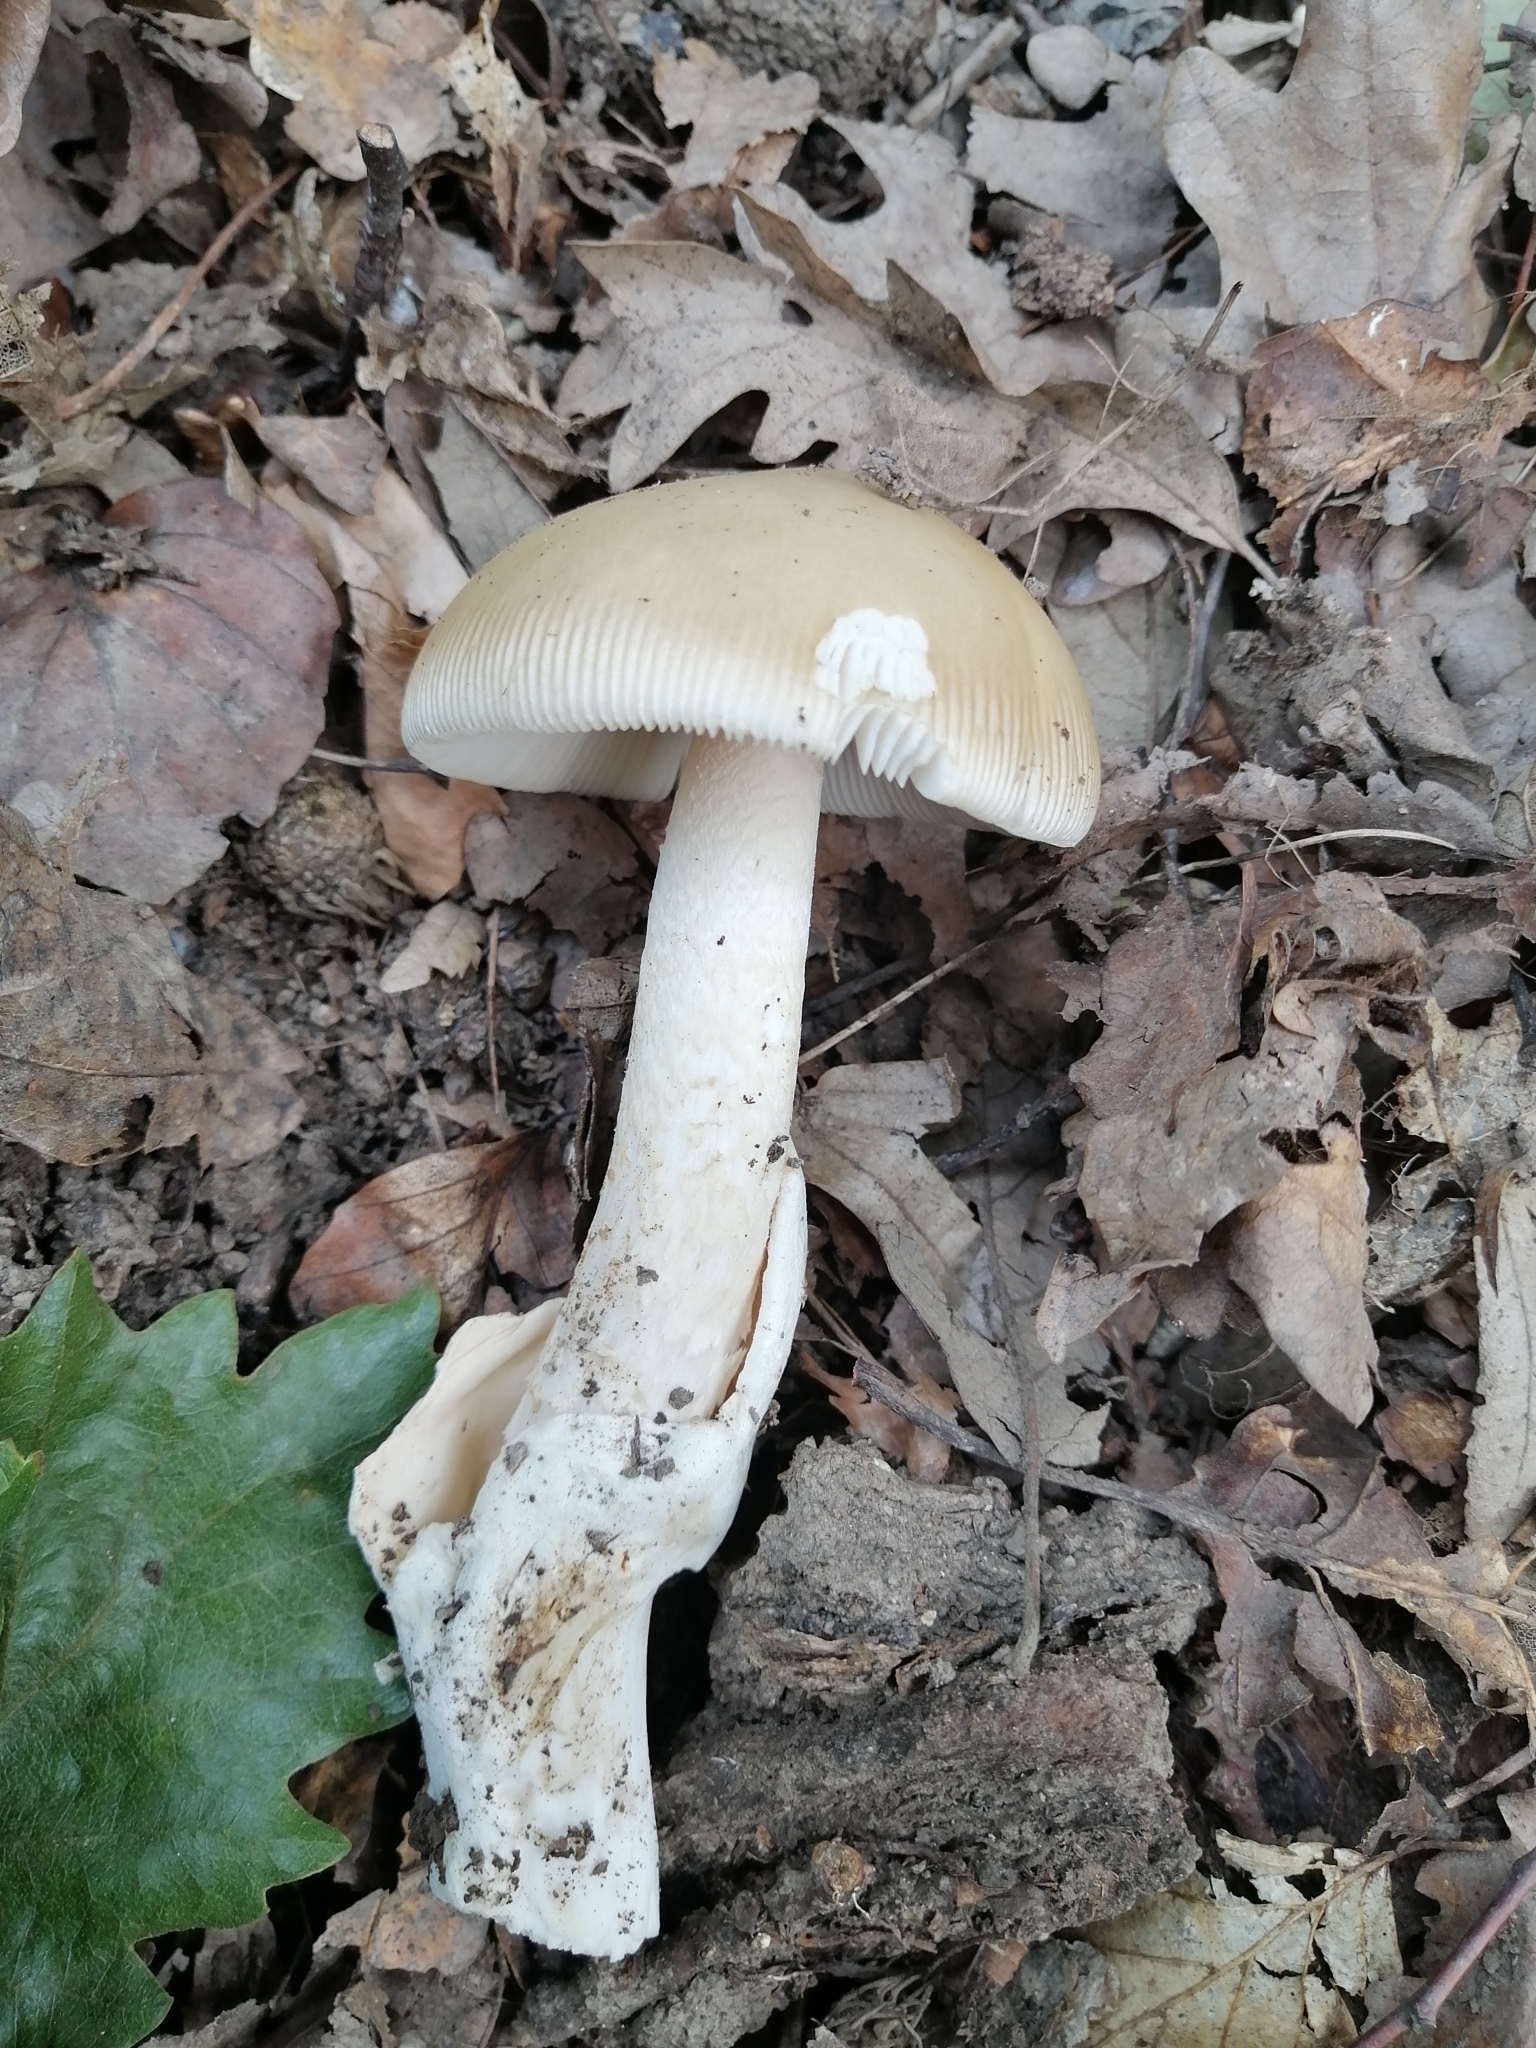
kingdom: Fungi
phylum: Basidiomycota
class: Agaricomycetes
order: Agaricales
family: Amanitaceae
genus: Amanita
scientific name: Amanita lividopallescens
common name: Pale grisette
